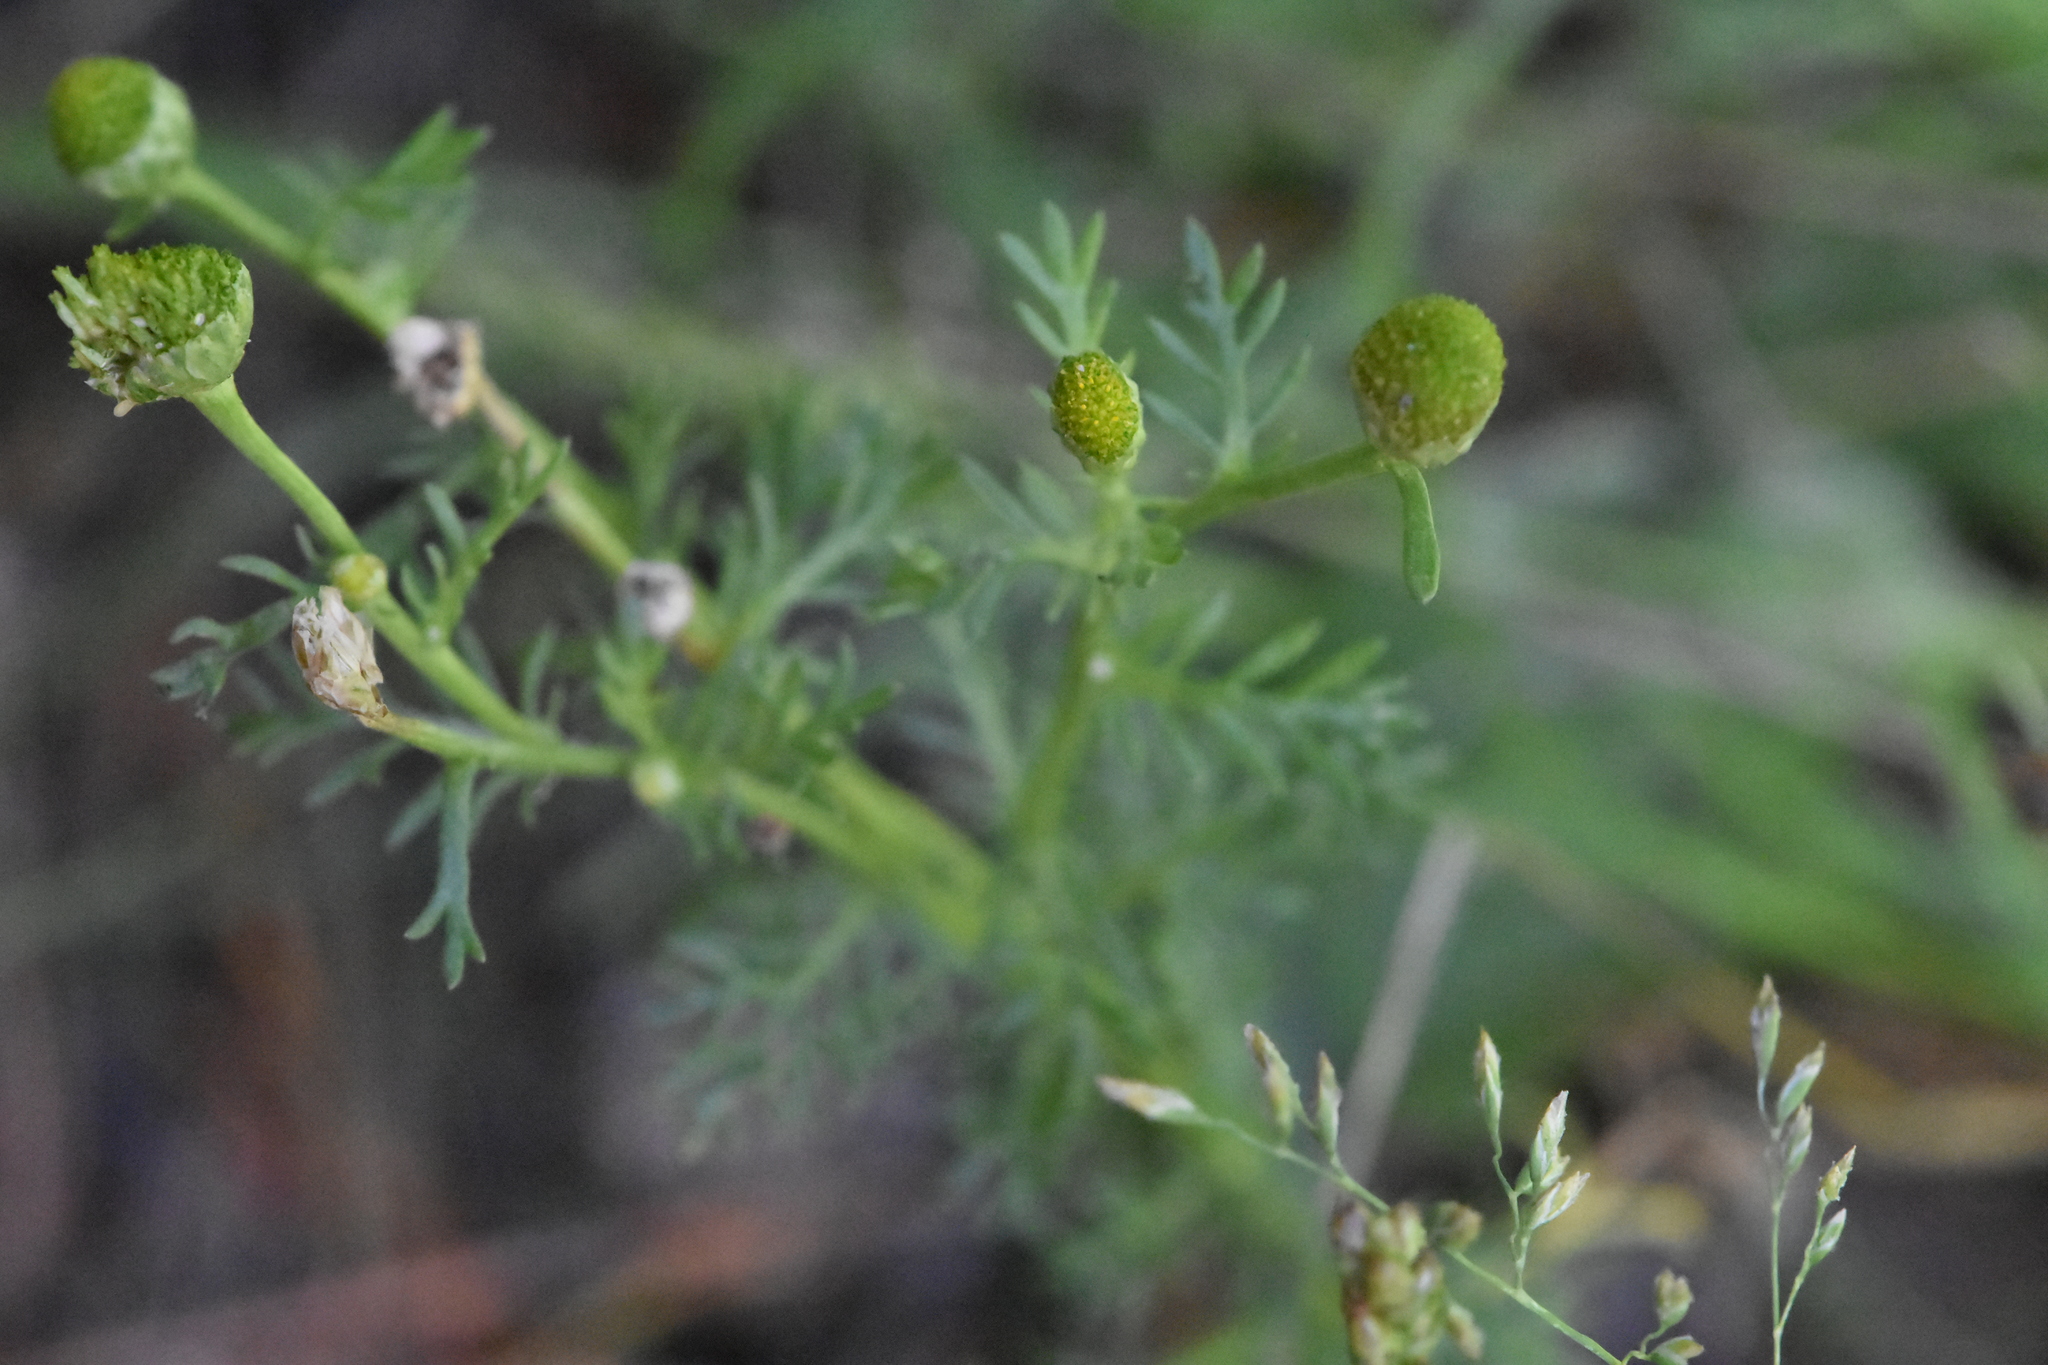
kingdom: Plantae
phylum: Tracheophyta
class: Magnoliopsida
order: Asterales
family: Asteraceae
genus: Matricaria
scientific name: Matricaria discoidea
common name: Disc mayweed
